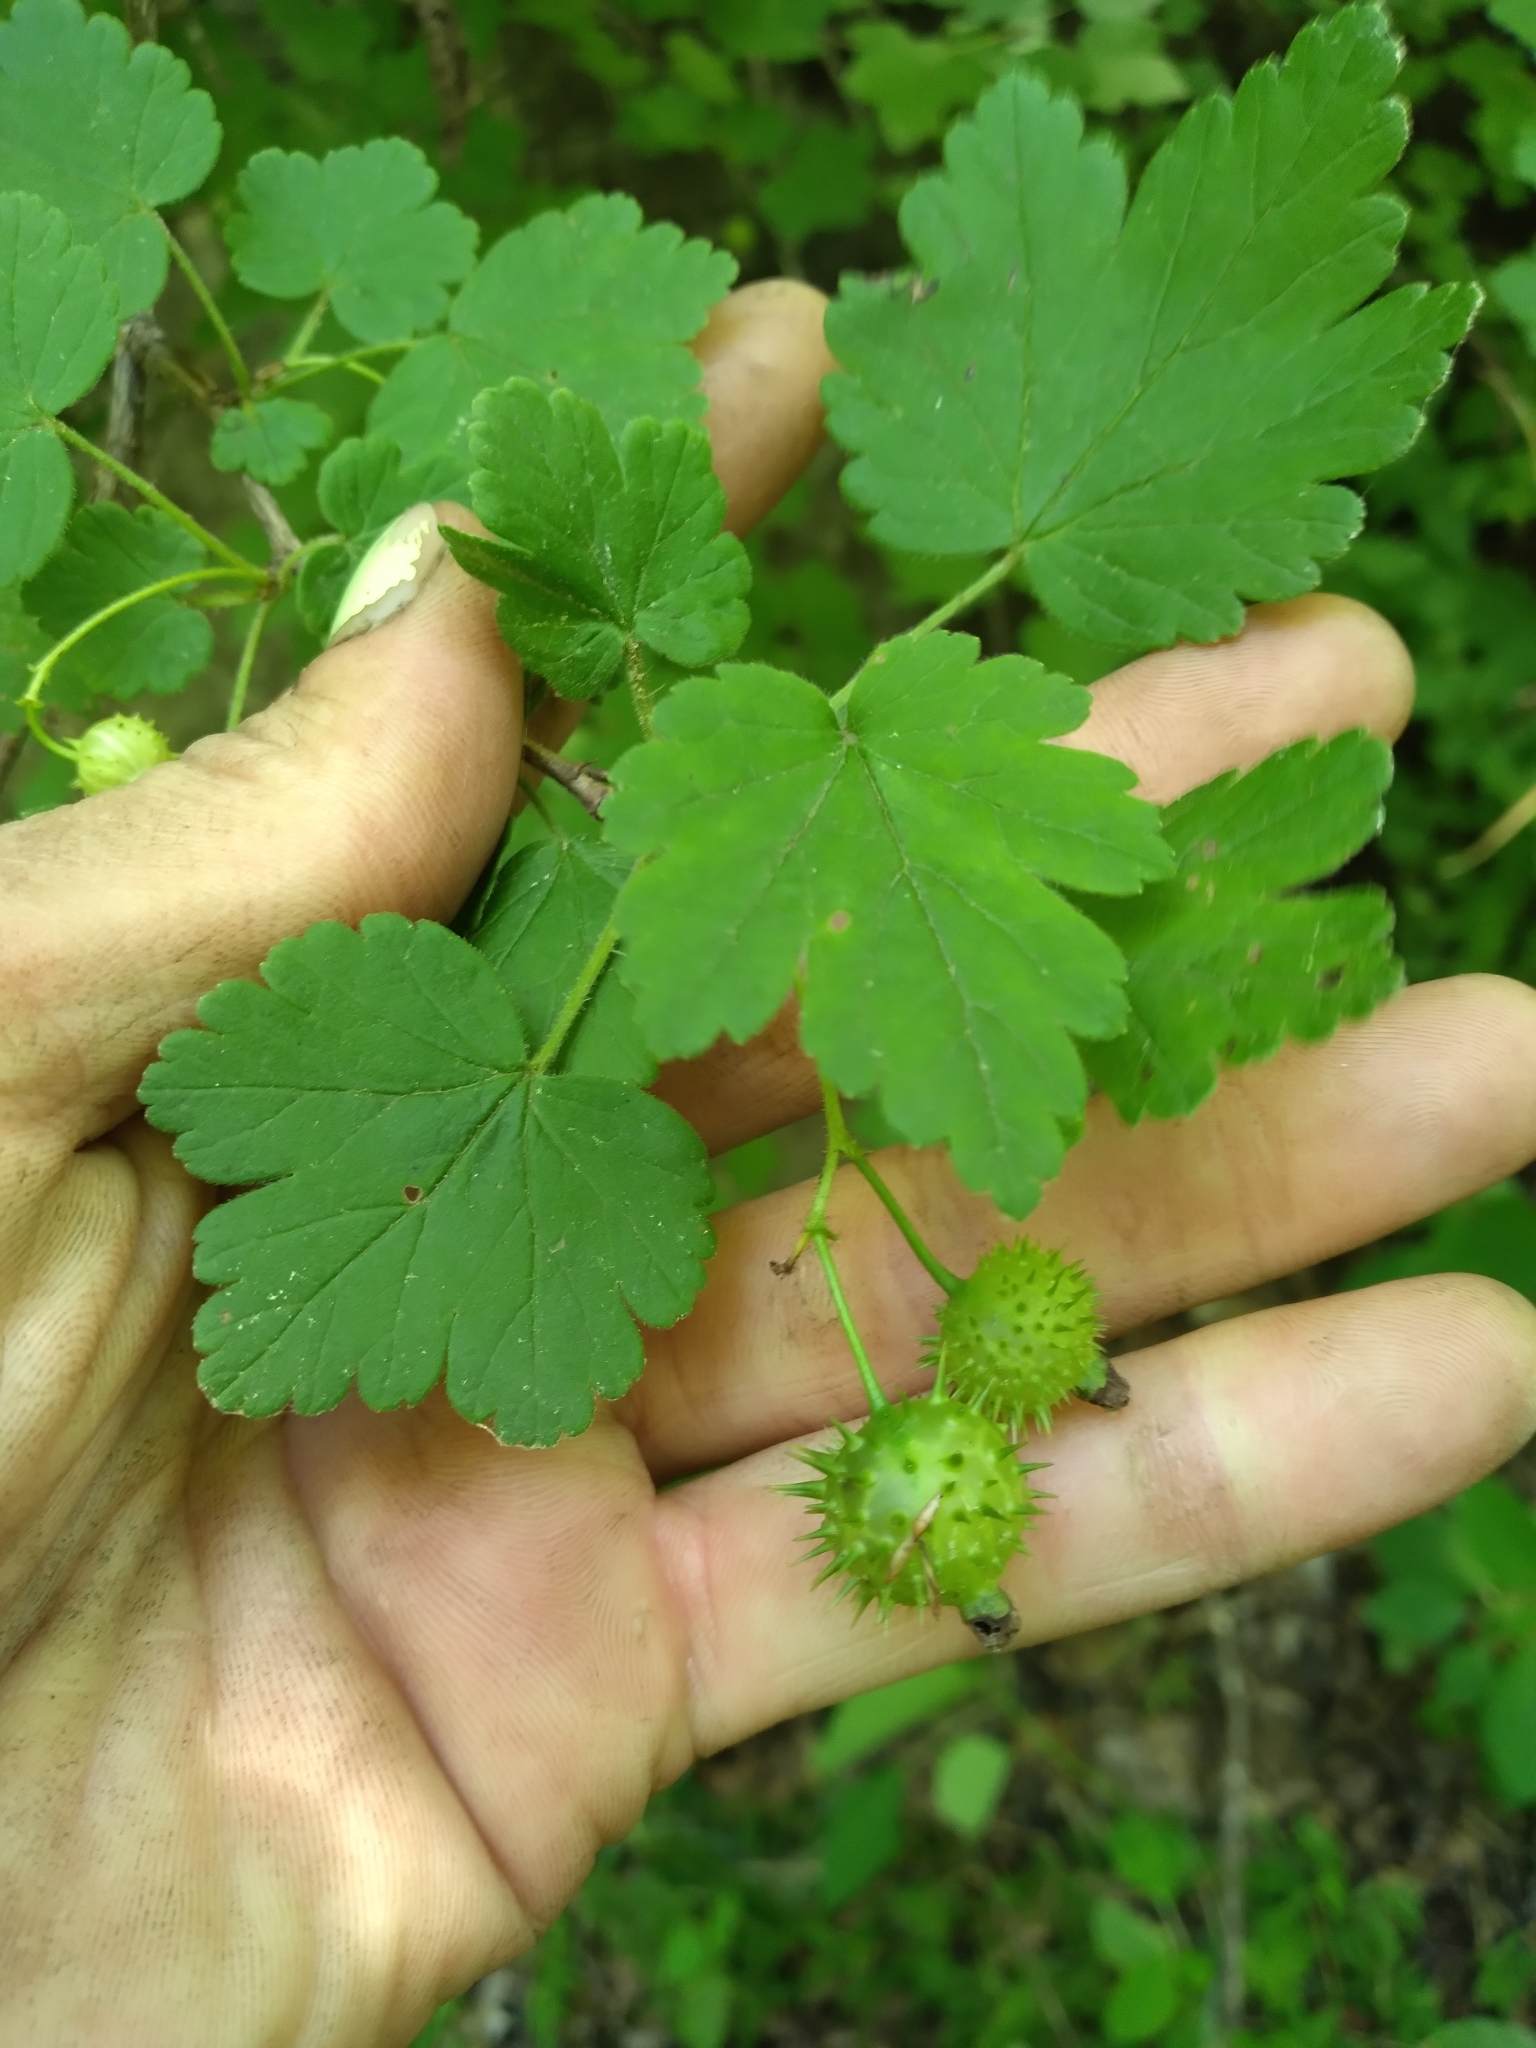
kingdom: Plantae
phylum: Tracheophyta
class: Magnoliopsida
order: Saxifragales
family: Grossulariaceae
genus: Ribes
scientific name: Ribes cynosbati
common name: American gooseberry
